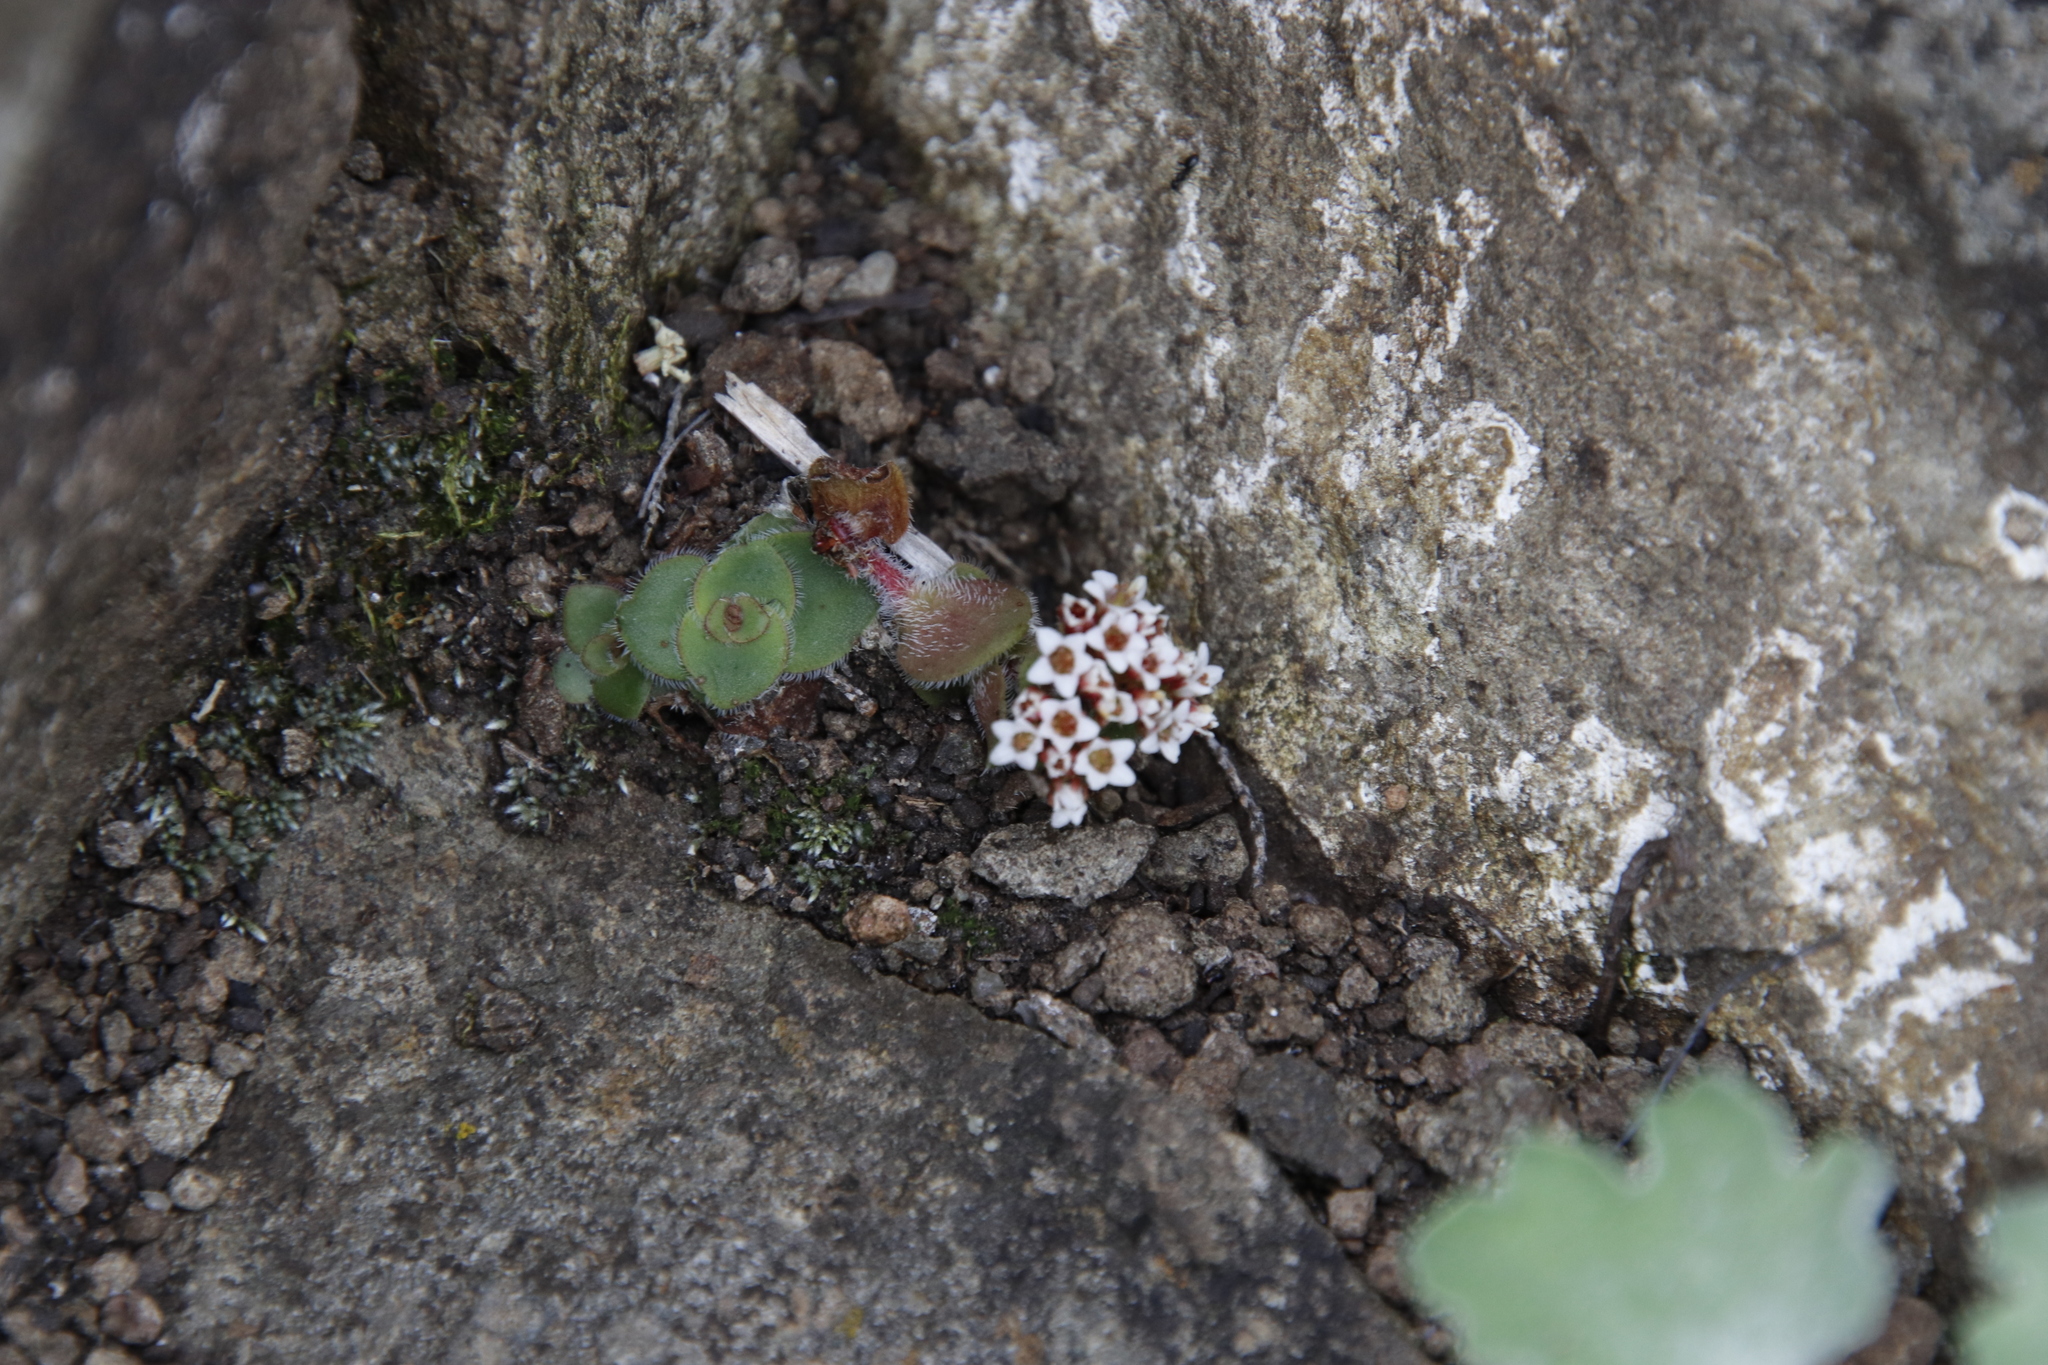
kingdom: Plantae
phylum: Tracheophyta
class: Magnoliopsida
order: Saxifragales
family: Crassulaceae
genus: Crassula
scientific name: Crassula setulosa
